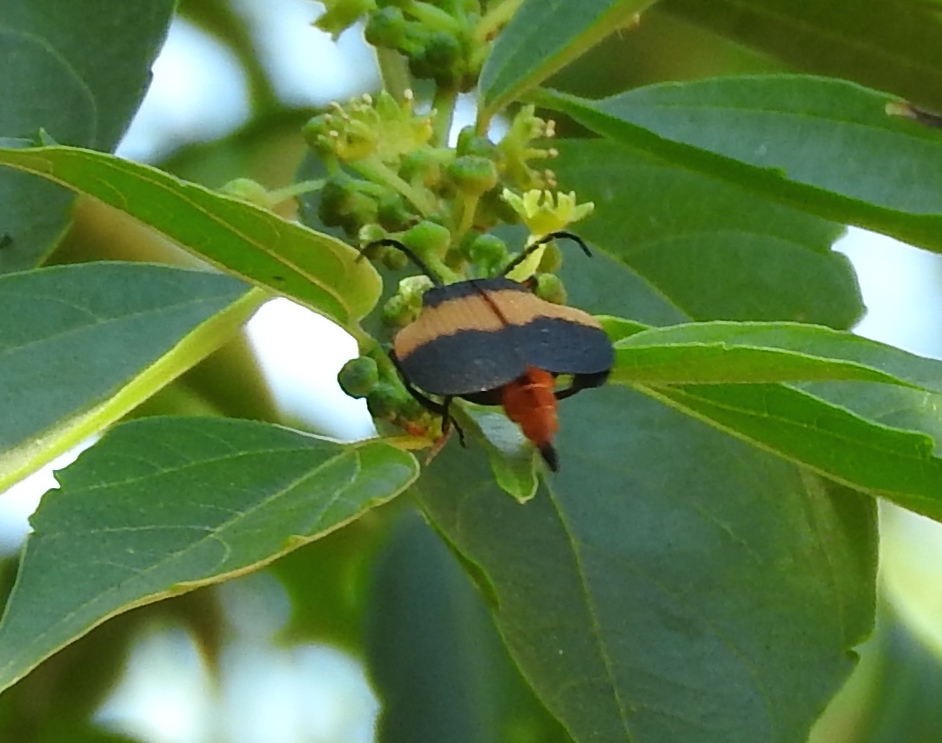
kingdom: Animalia
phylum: Arthropoda
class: Insecta
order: Coleoptera
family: Lycidae
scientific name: Lycidae
